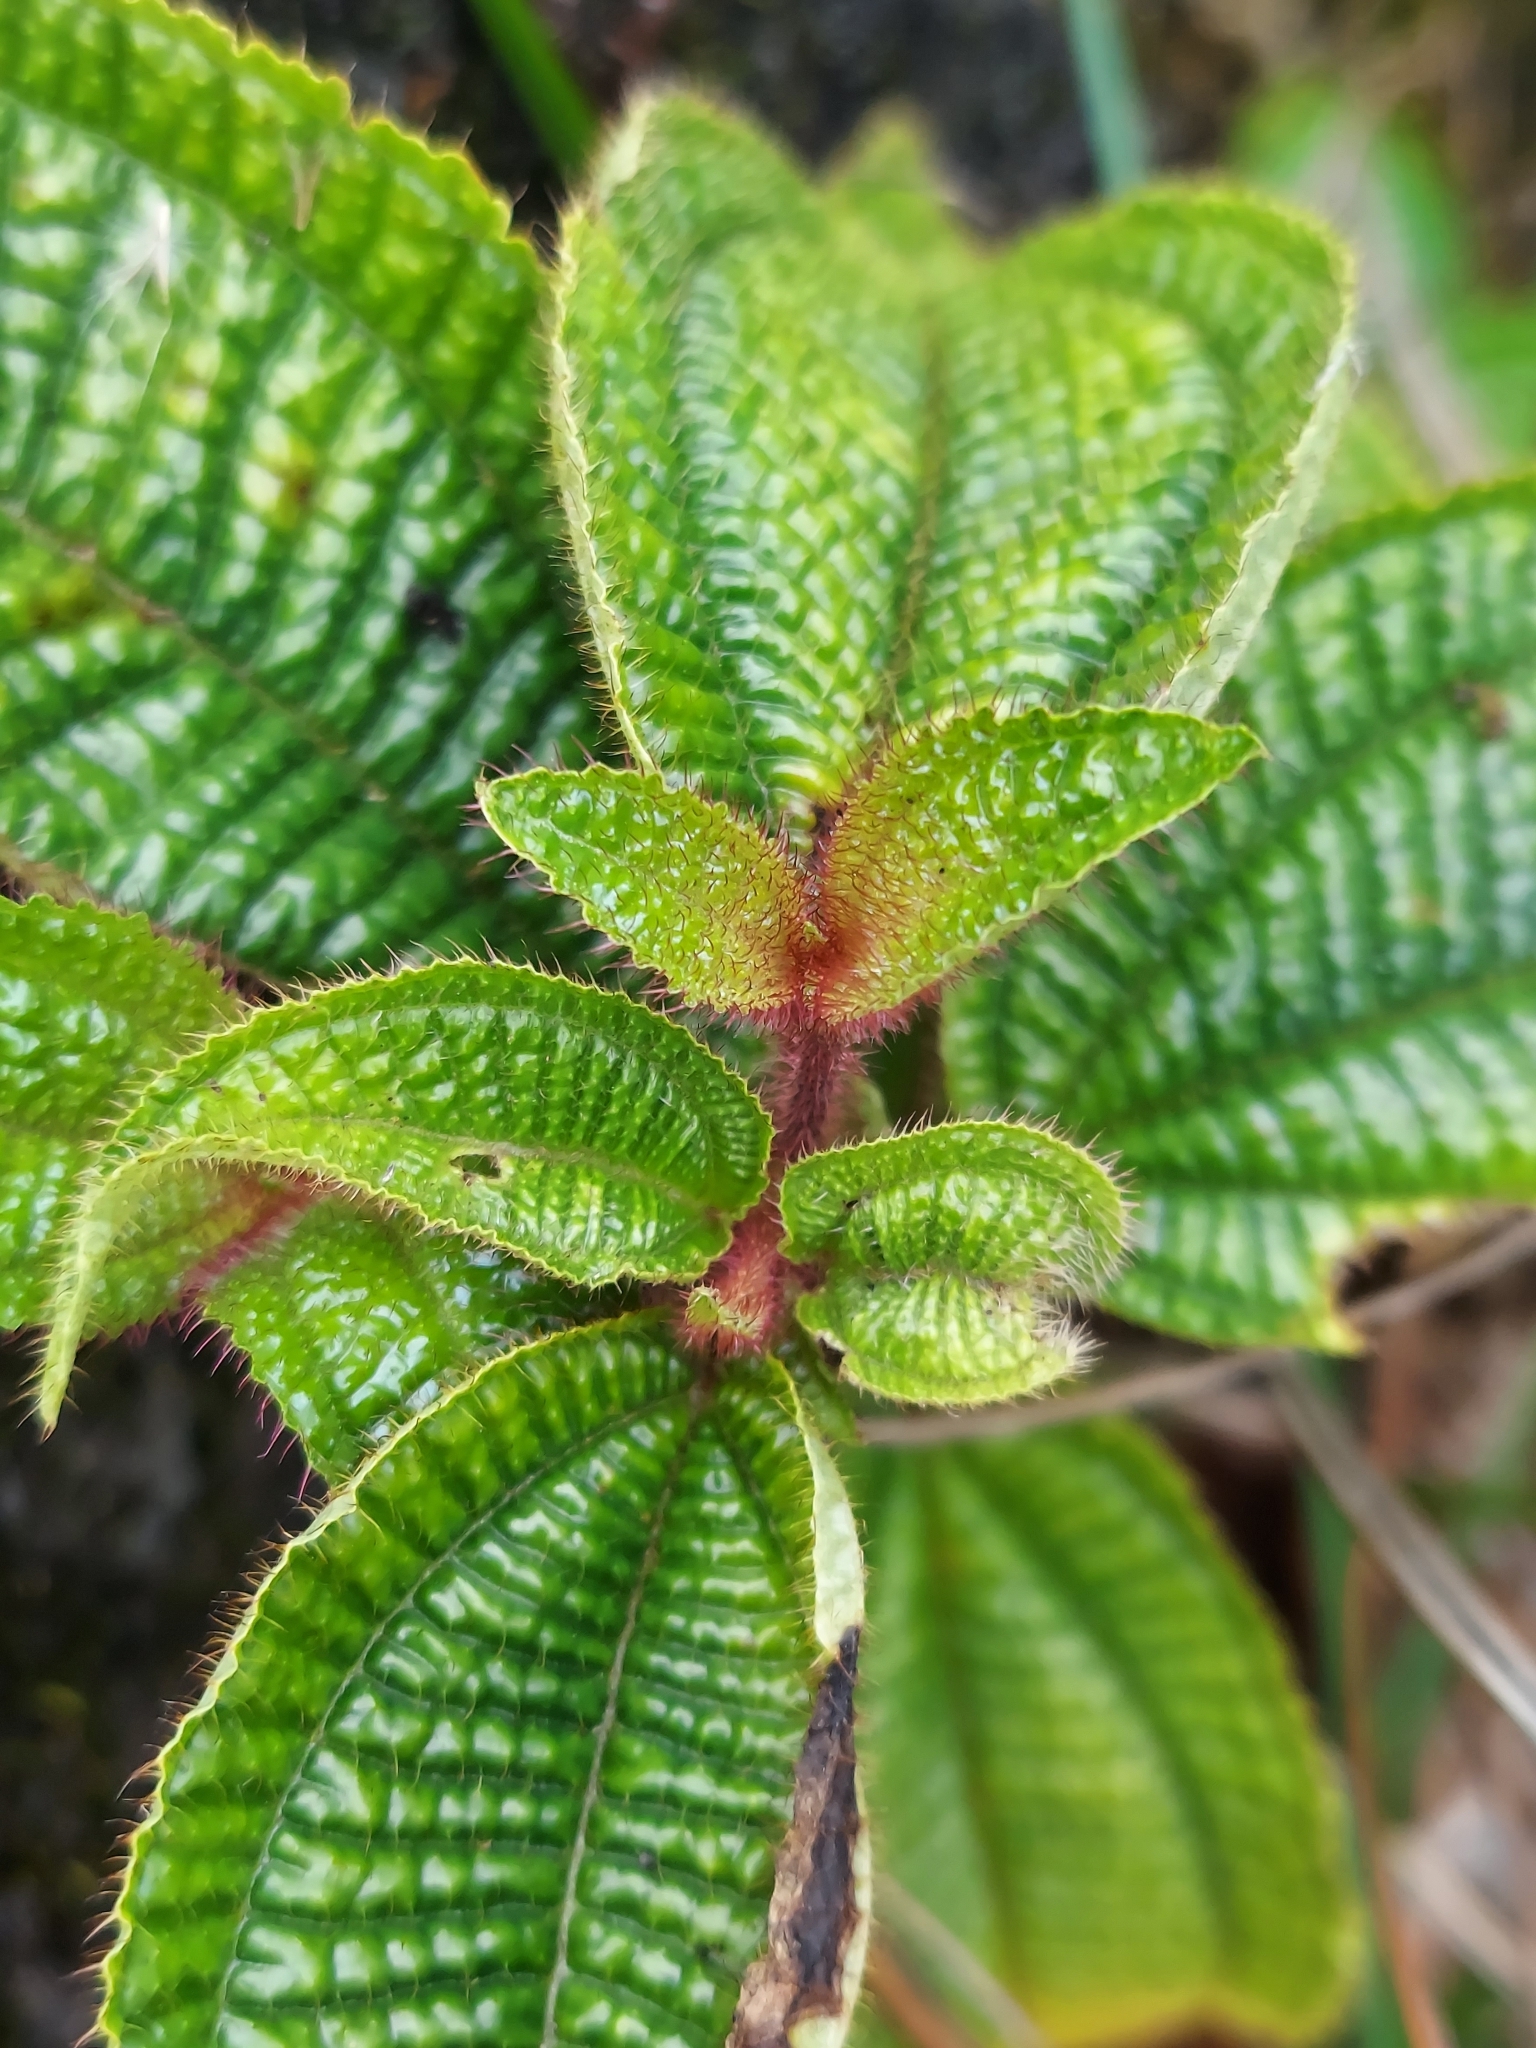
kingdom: Plantae
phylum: Tracheophyta
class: Magnoliopsida
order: Myrtales
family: Melastomataceae
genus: Miconia
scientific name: Miconia crenata
